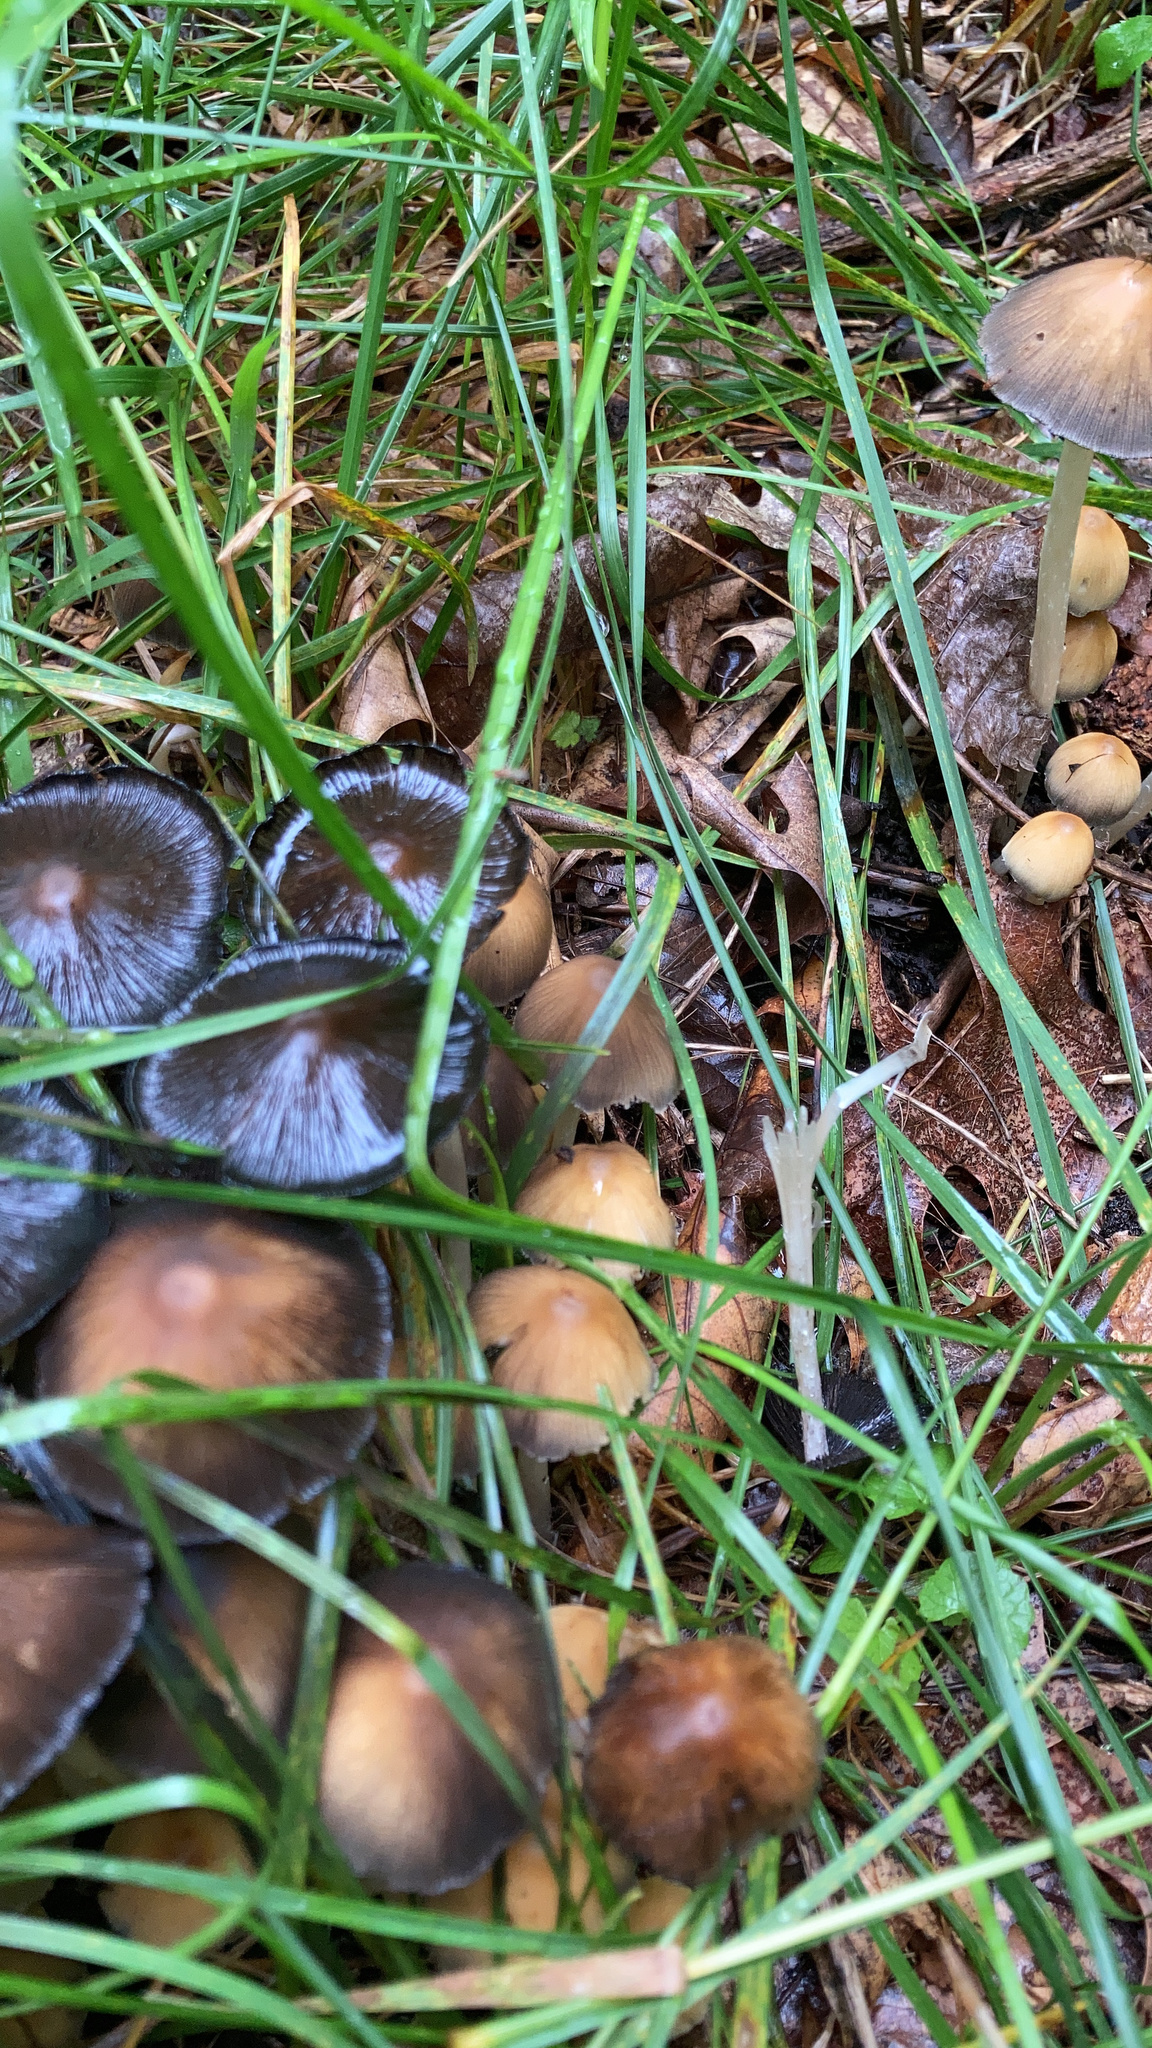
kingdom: Fungi
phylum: Basidiomycota
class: Agaricomycetes
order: Agaricales
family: Psathyrellaceae
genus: Coprinellus
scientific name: Coprinellus micaceus
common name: Glistening ink-cap
